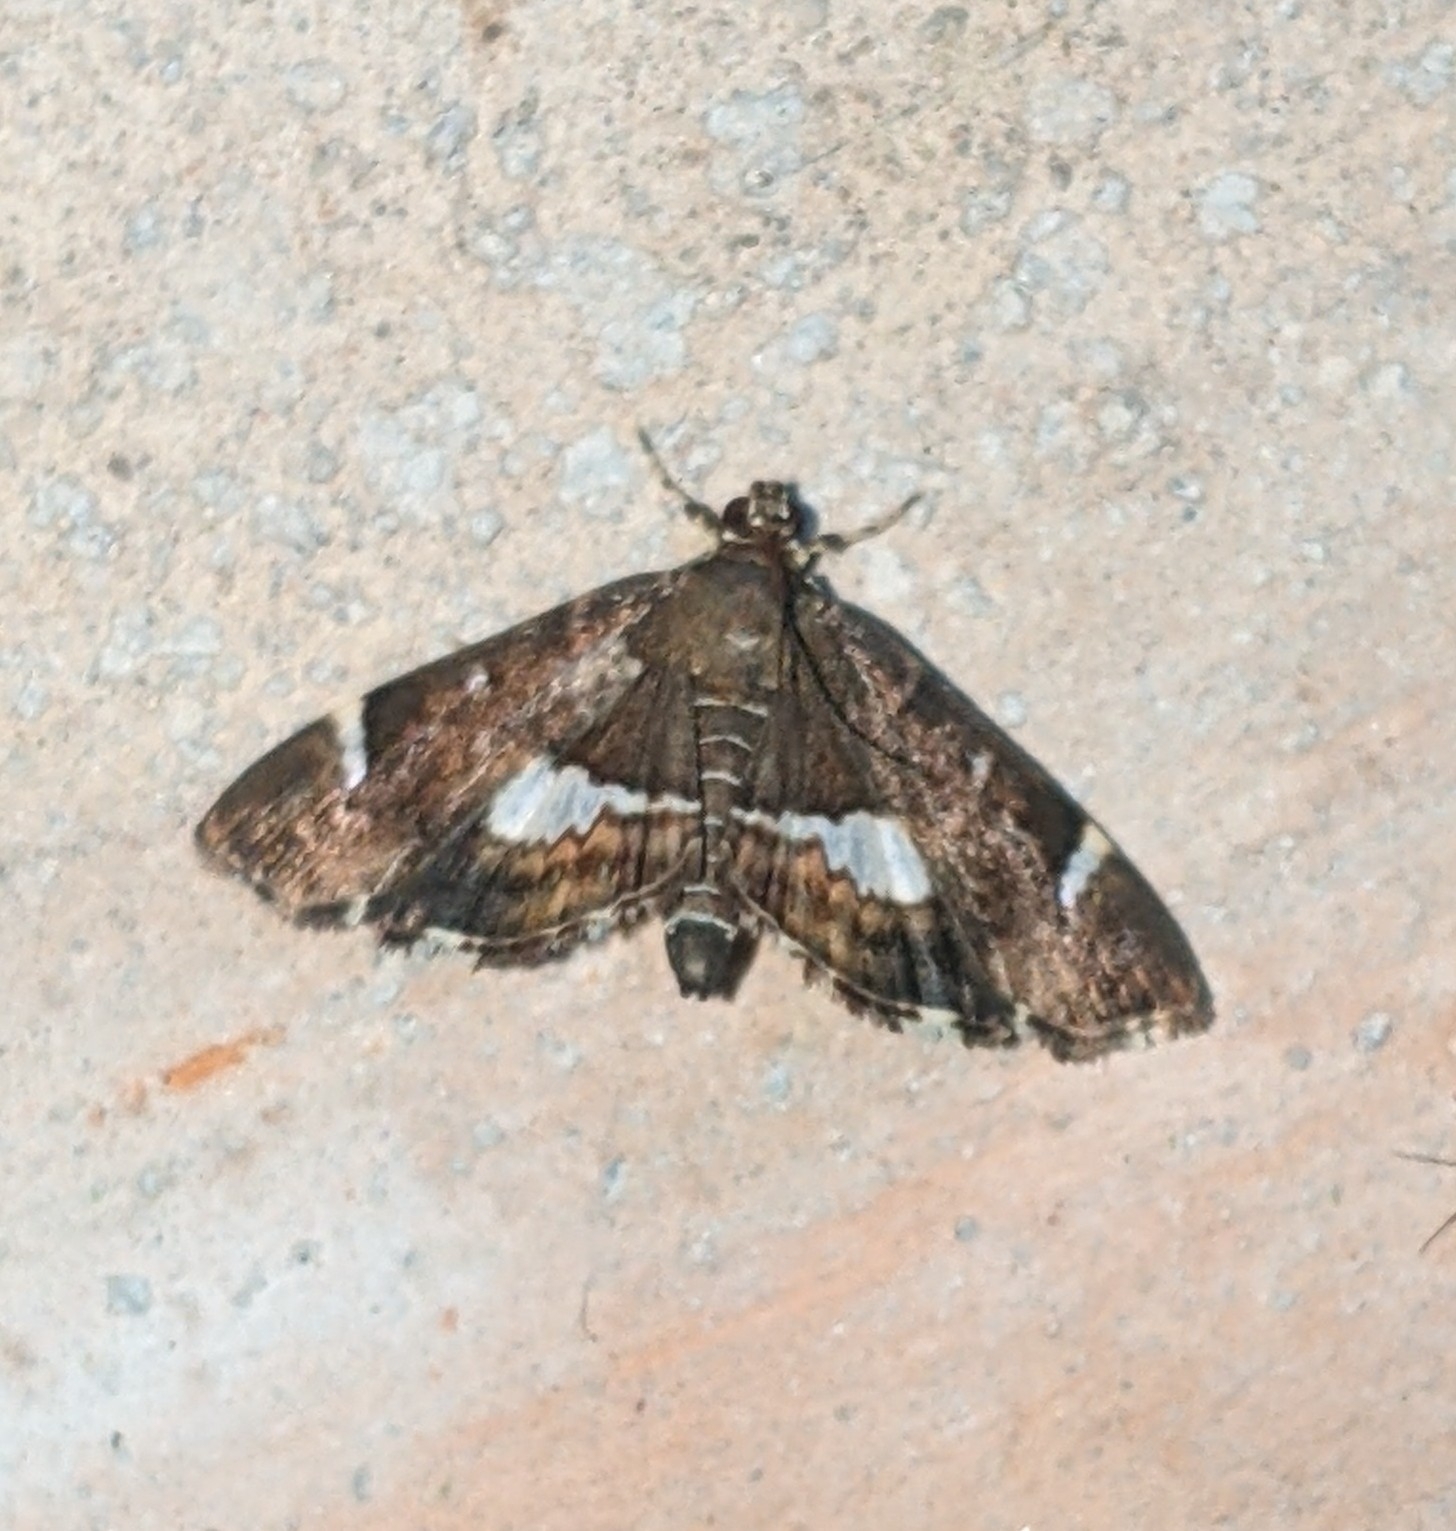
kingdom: Animalia
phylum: Arthropoda
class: Insecta
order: Lepidoptera
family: Crambidae
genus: Hymenia
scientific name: Hymenia perspectalis
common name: Spotted beet webworm
